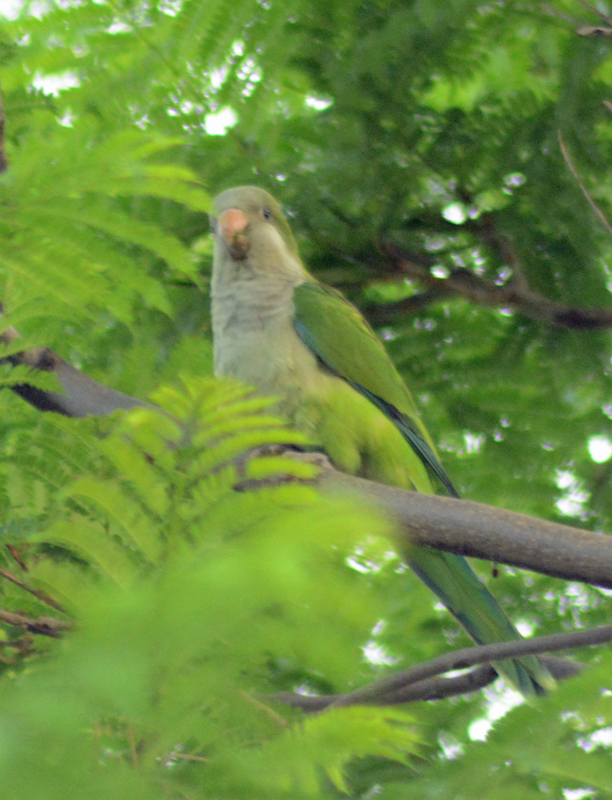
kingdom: Animalia
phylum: Chordata
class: Aves
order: Psittaciformes
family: Psittacidae
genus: Myiopsitta
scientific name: Myiopsitta monachus
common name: Monk parakeet
